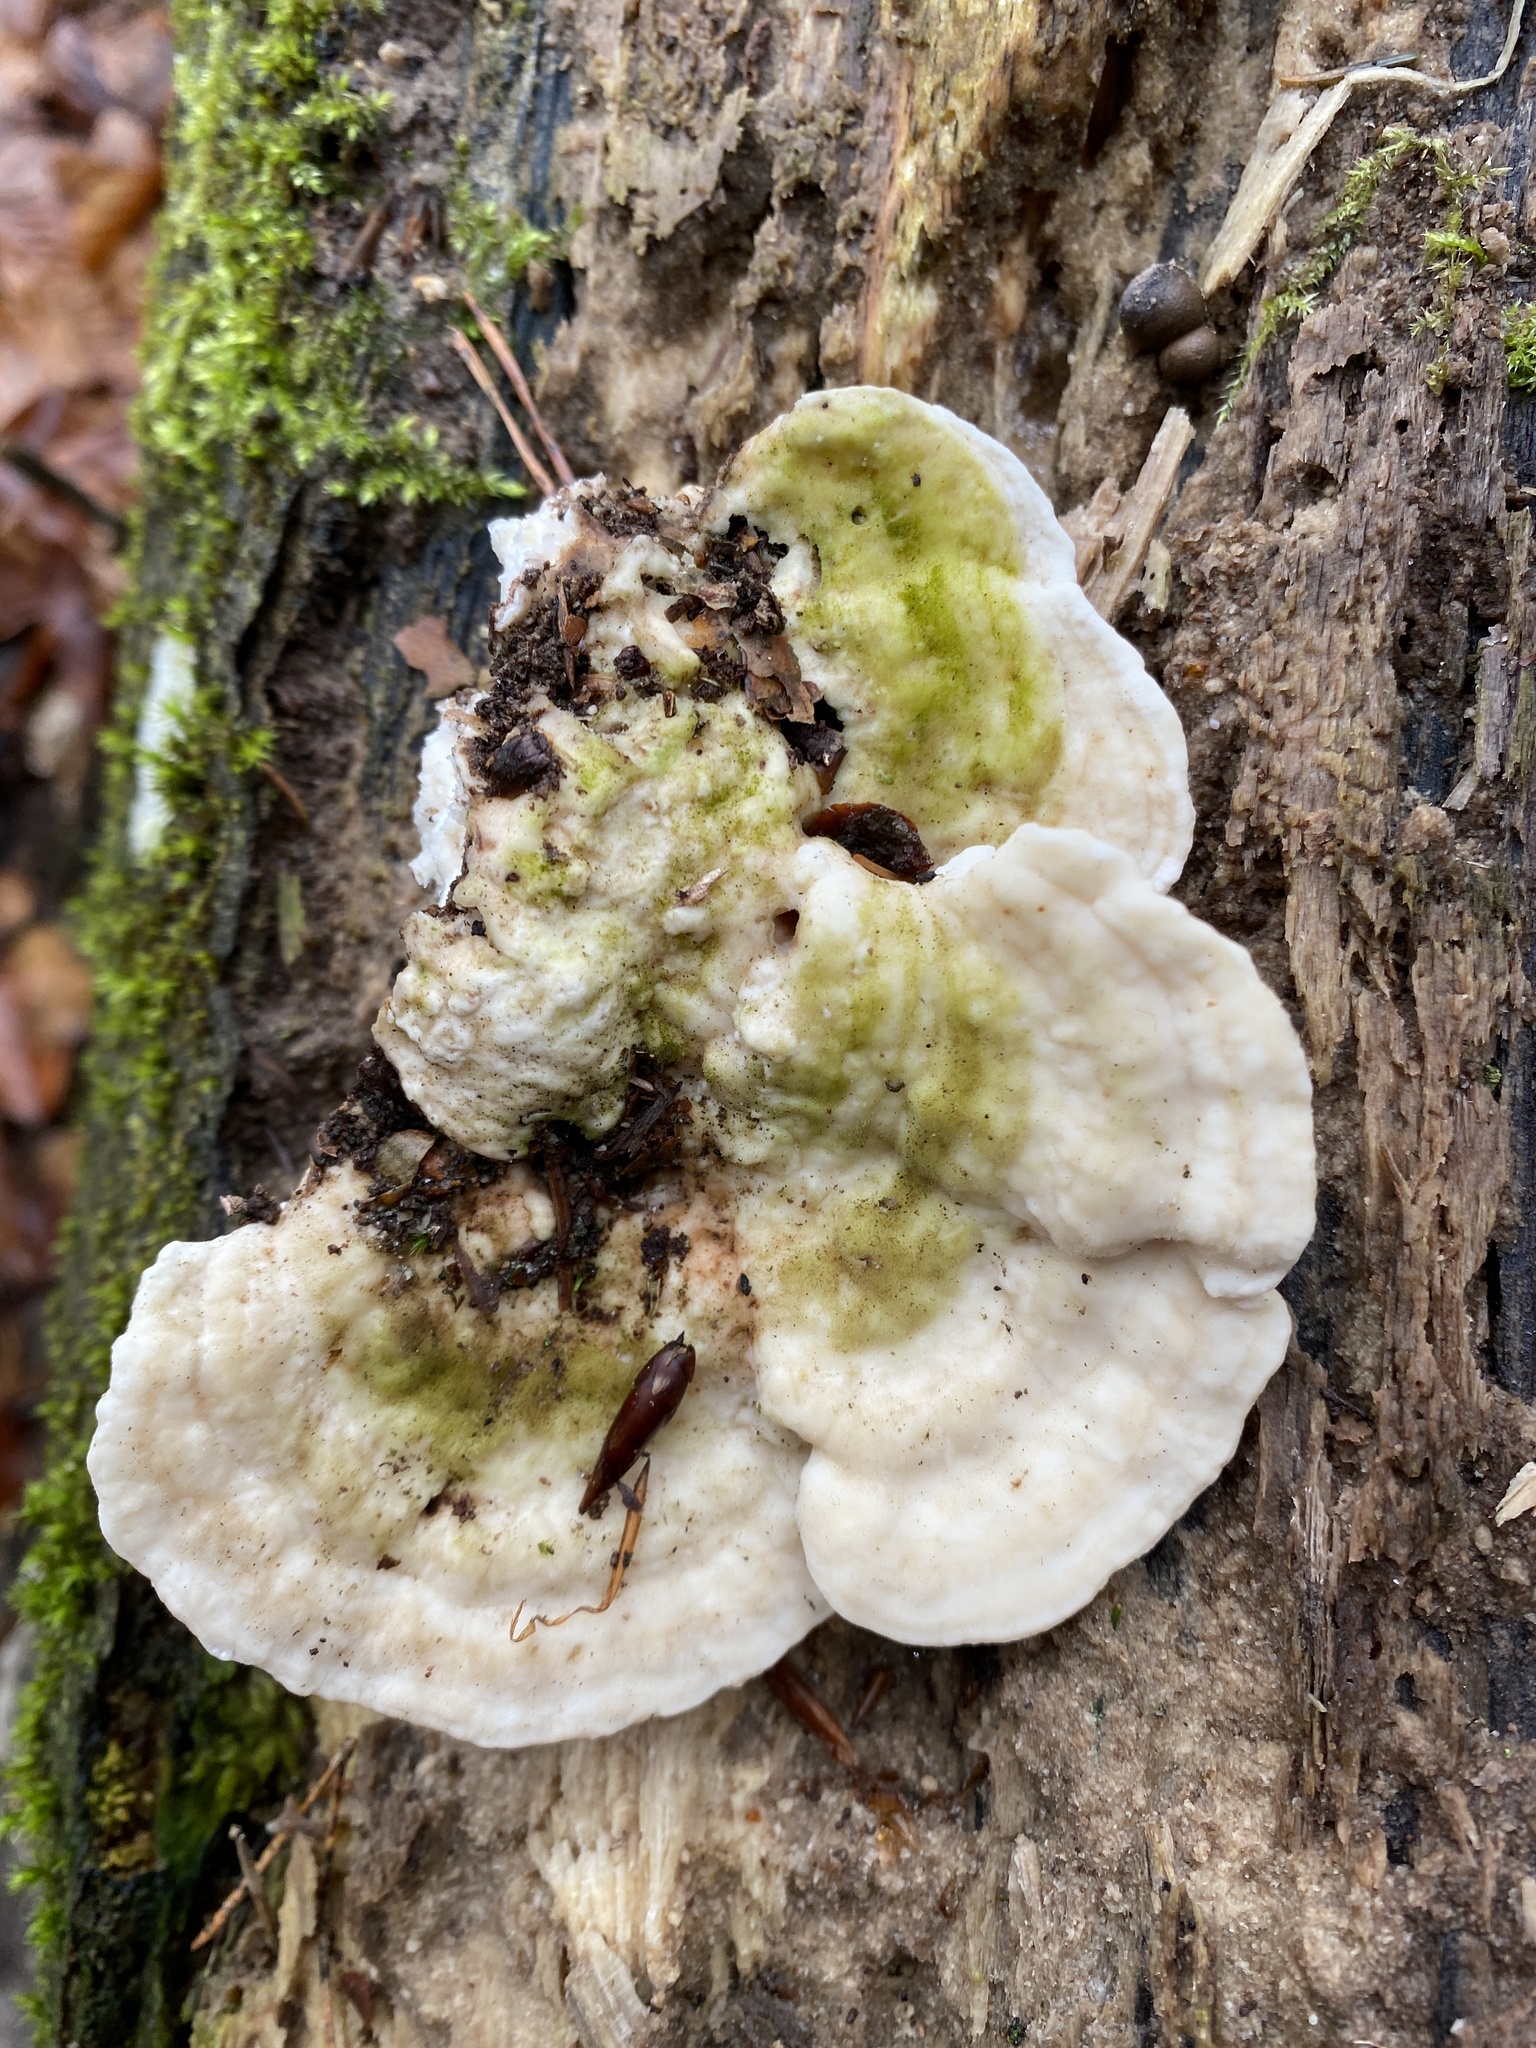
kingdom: Fungi
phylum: Basidiomycota
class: Agaricomycetes
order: Polyporales
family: Polyporaceae
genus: Trametes
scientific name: Trametes gibbosa
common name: Lumpy bracket
